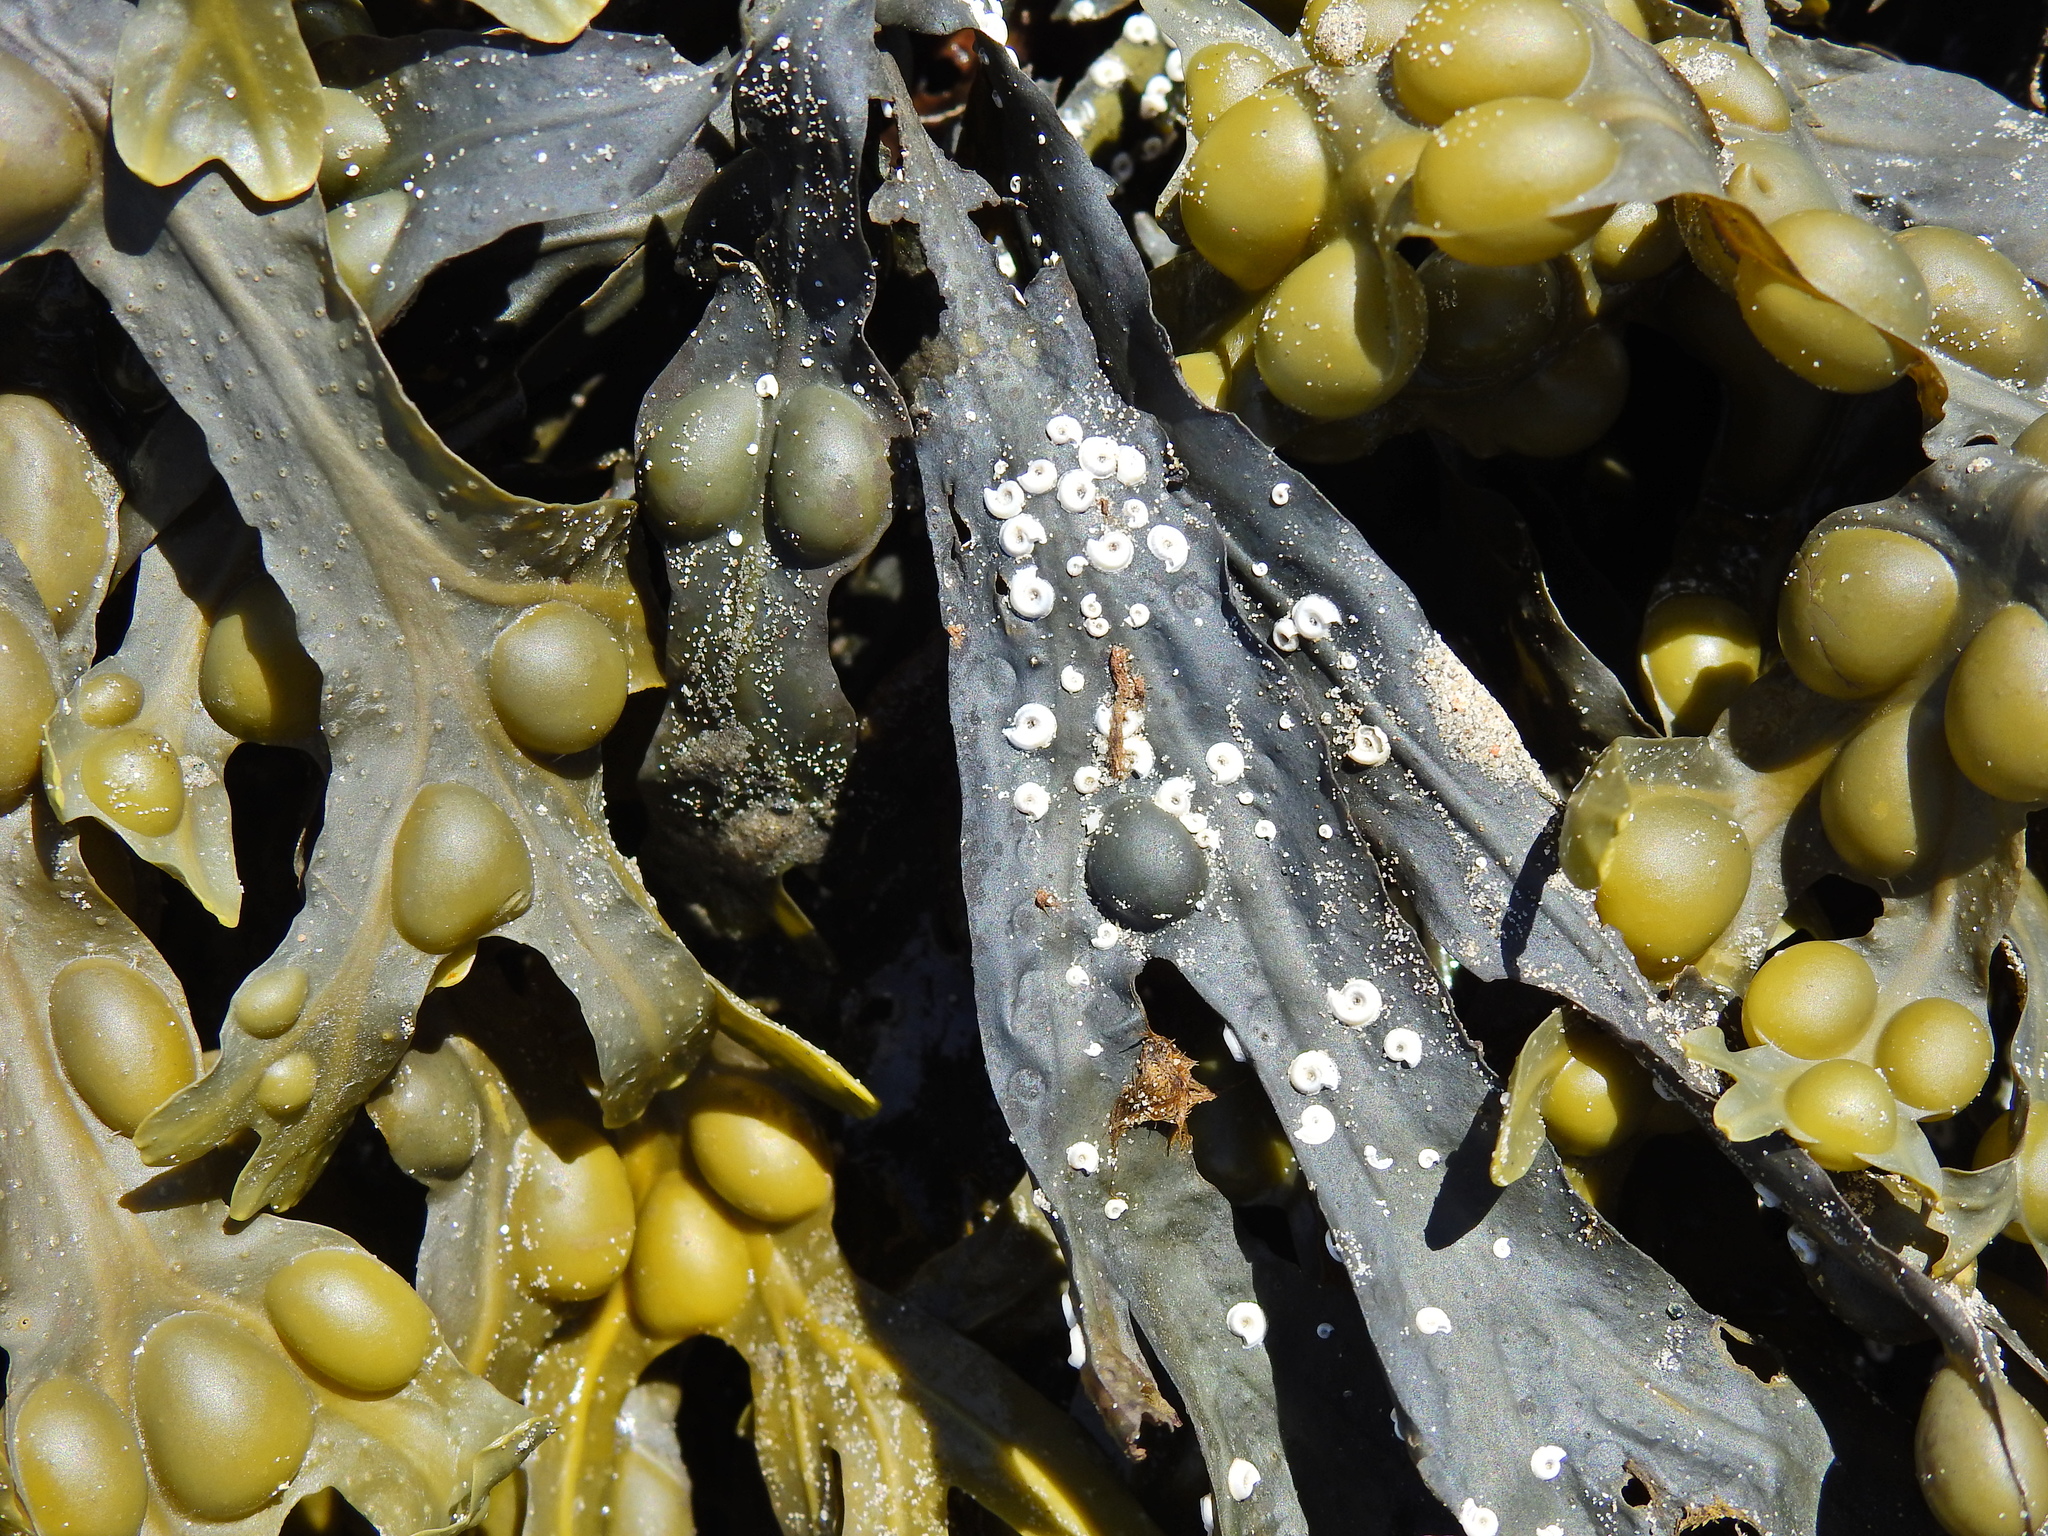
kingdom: Animalia
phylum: Annelida
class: Polychaeta
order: Sabellida
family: Serpulidae
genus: Spirorbis
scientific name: Spirorbis spirorbis
